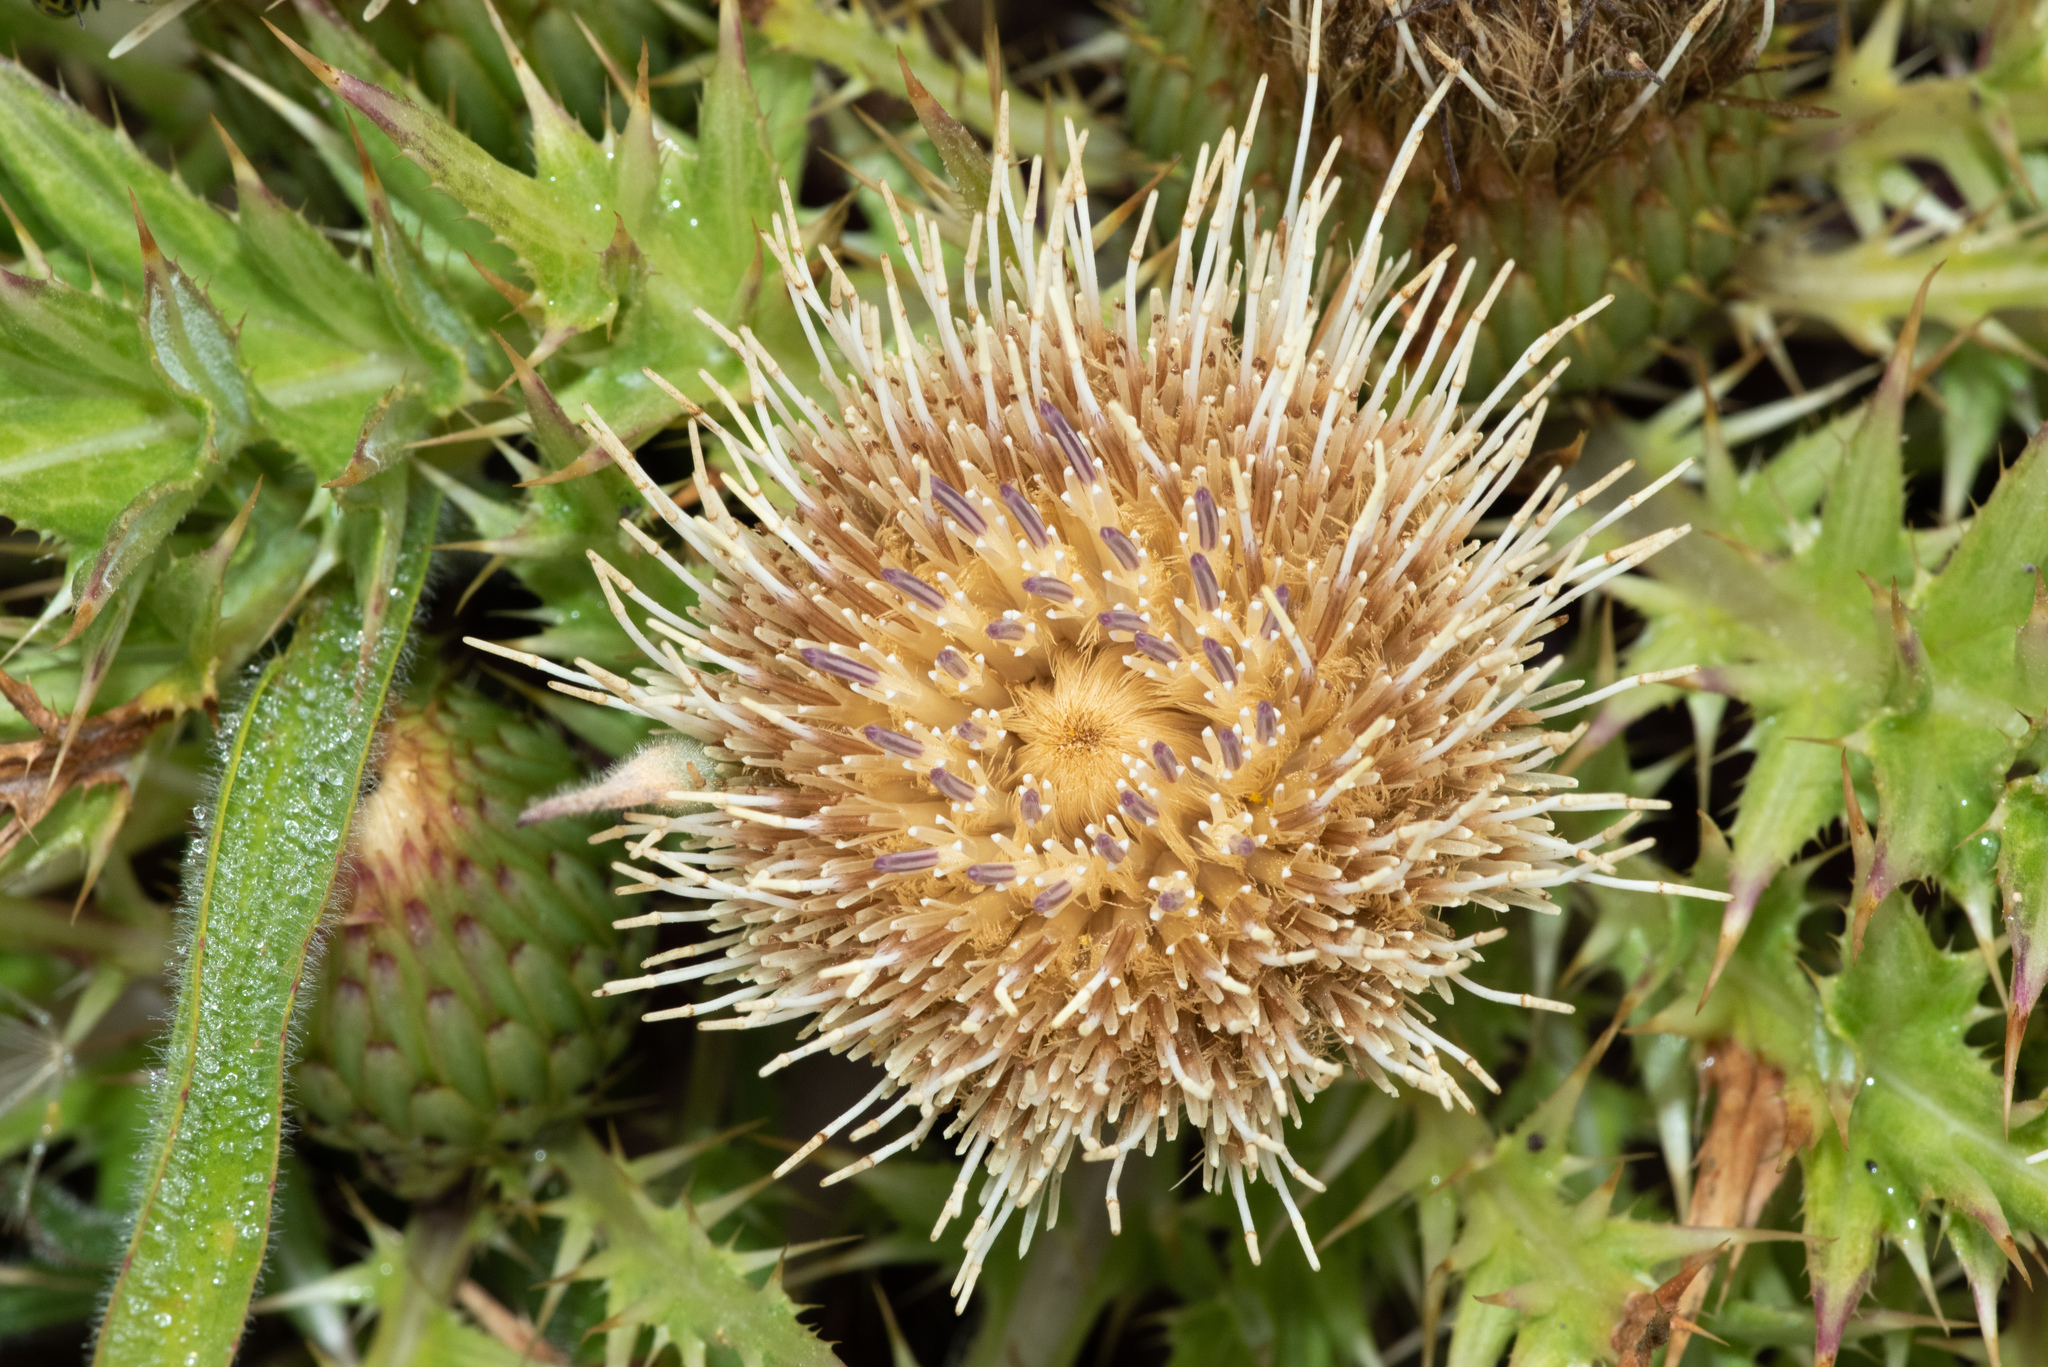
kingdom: Plantae
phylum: Tracheophyta
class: Magnoliopsida
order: Asterales
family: Asteraceae
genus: Cirsium
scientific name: Cirsium quercetorum
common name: Alameda county thistle
